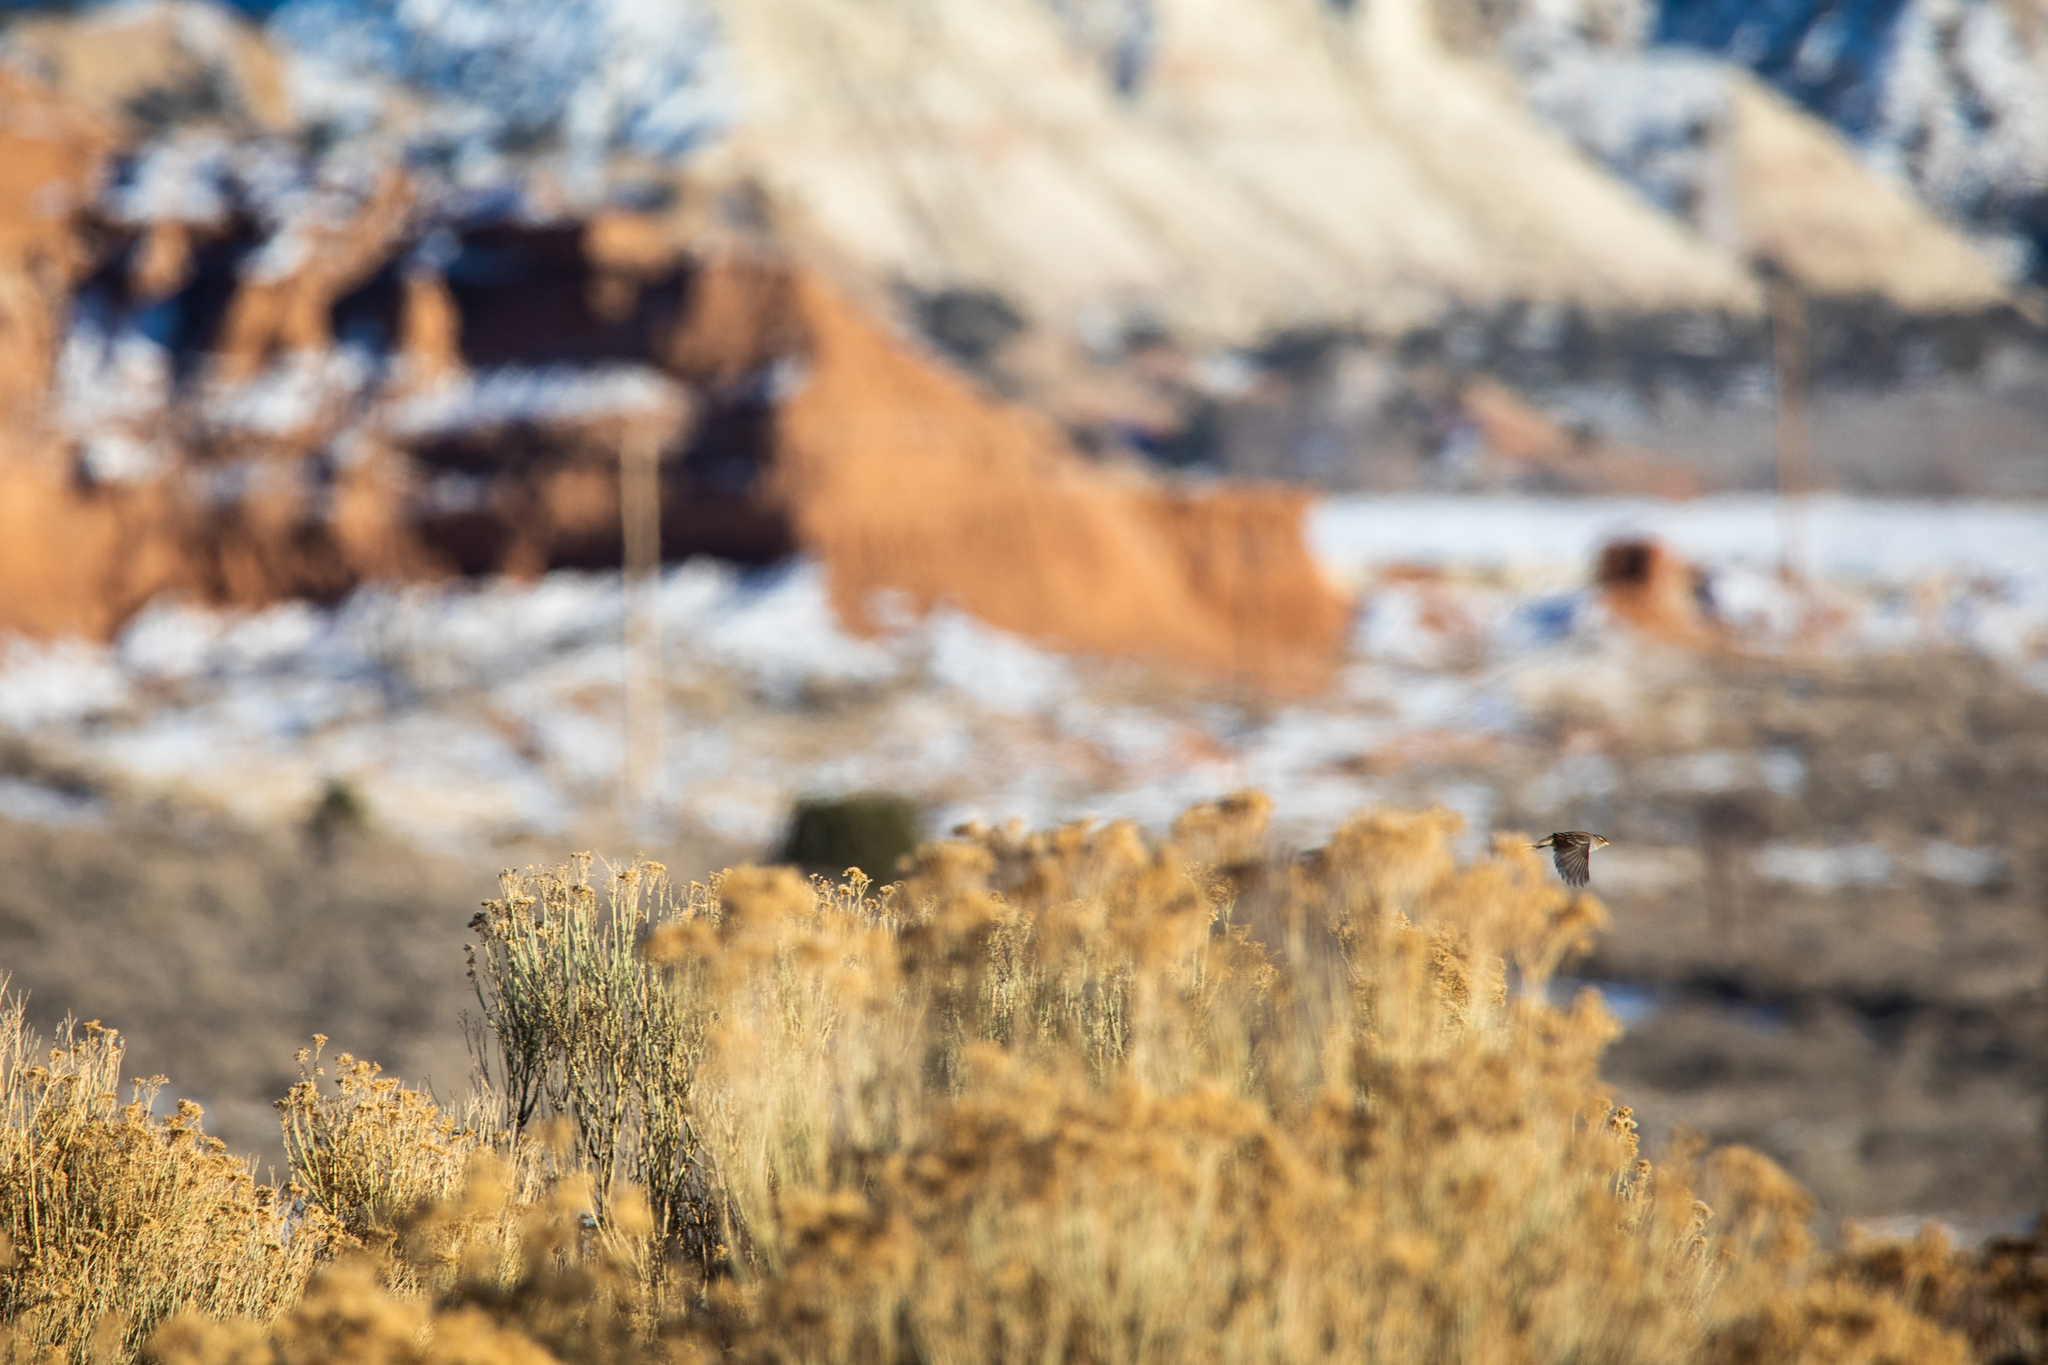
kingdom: Animalia
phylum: Chordata
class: Aves
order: Passeriformes
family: Passerellidae
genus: Zonotrichia
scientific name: Zonotrichia leucophrys
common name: White-crowned sparrow
